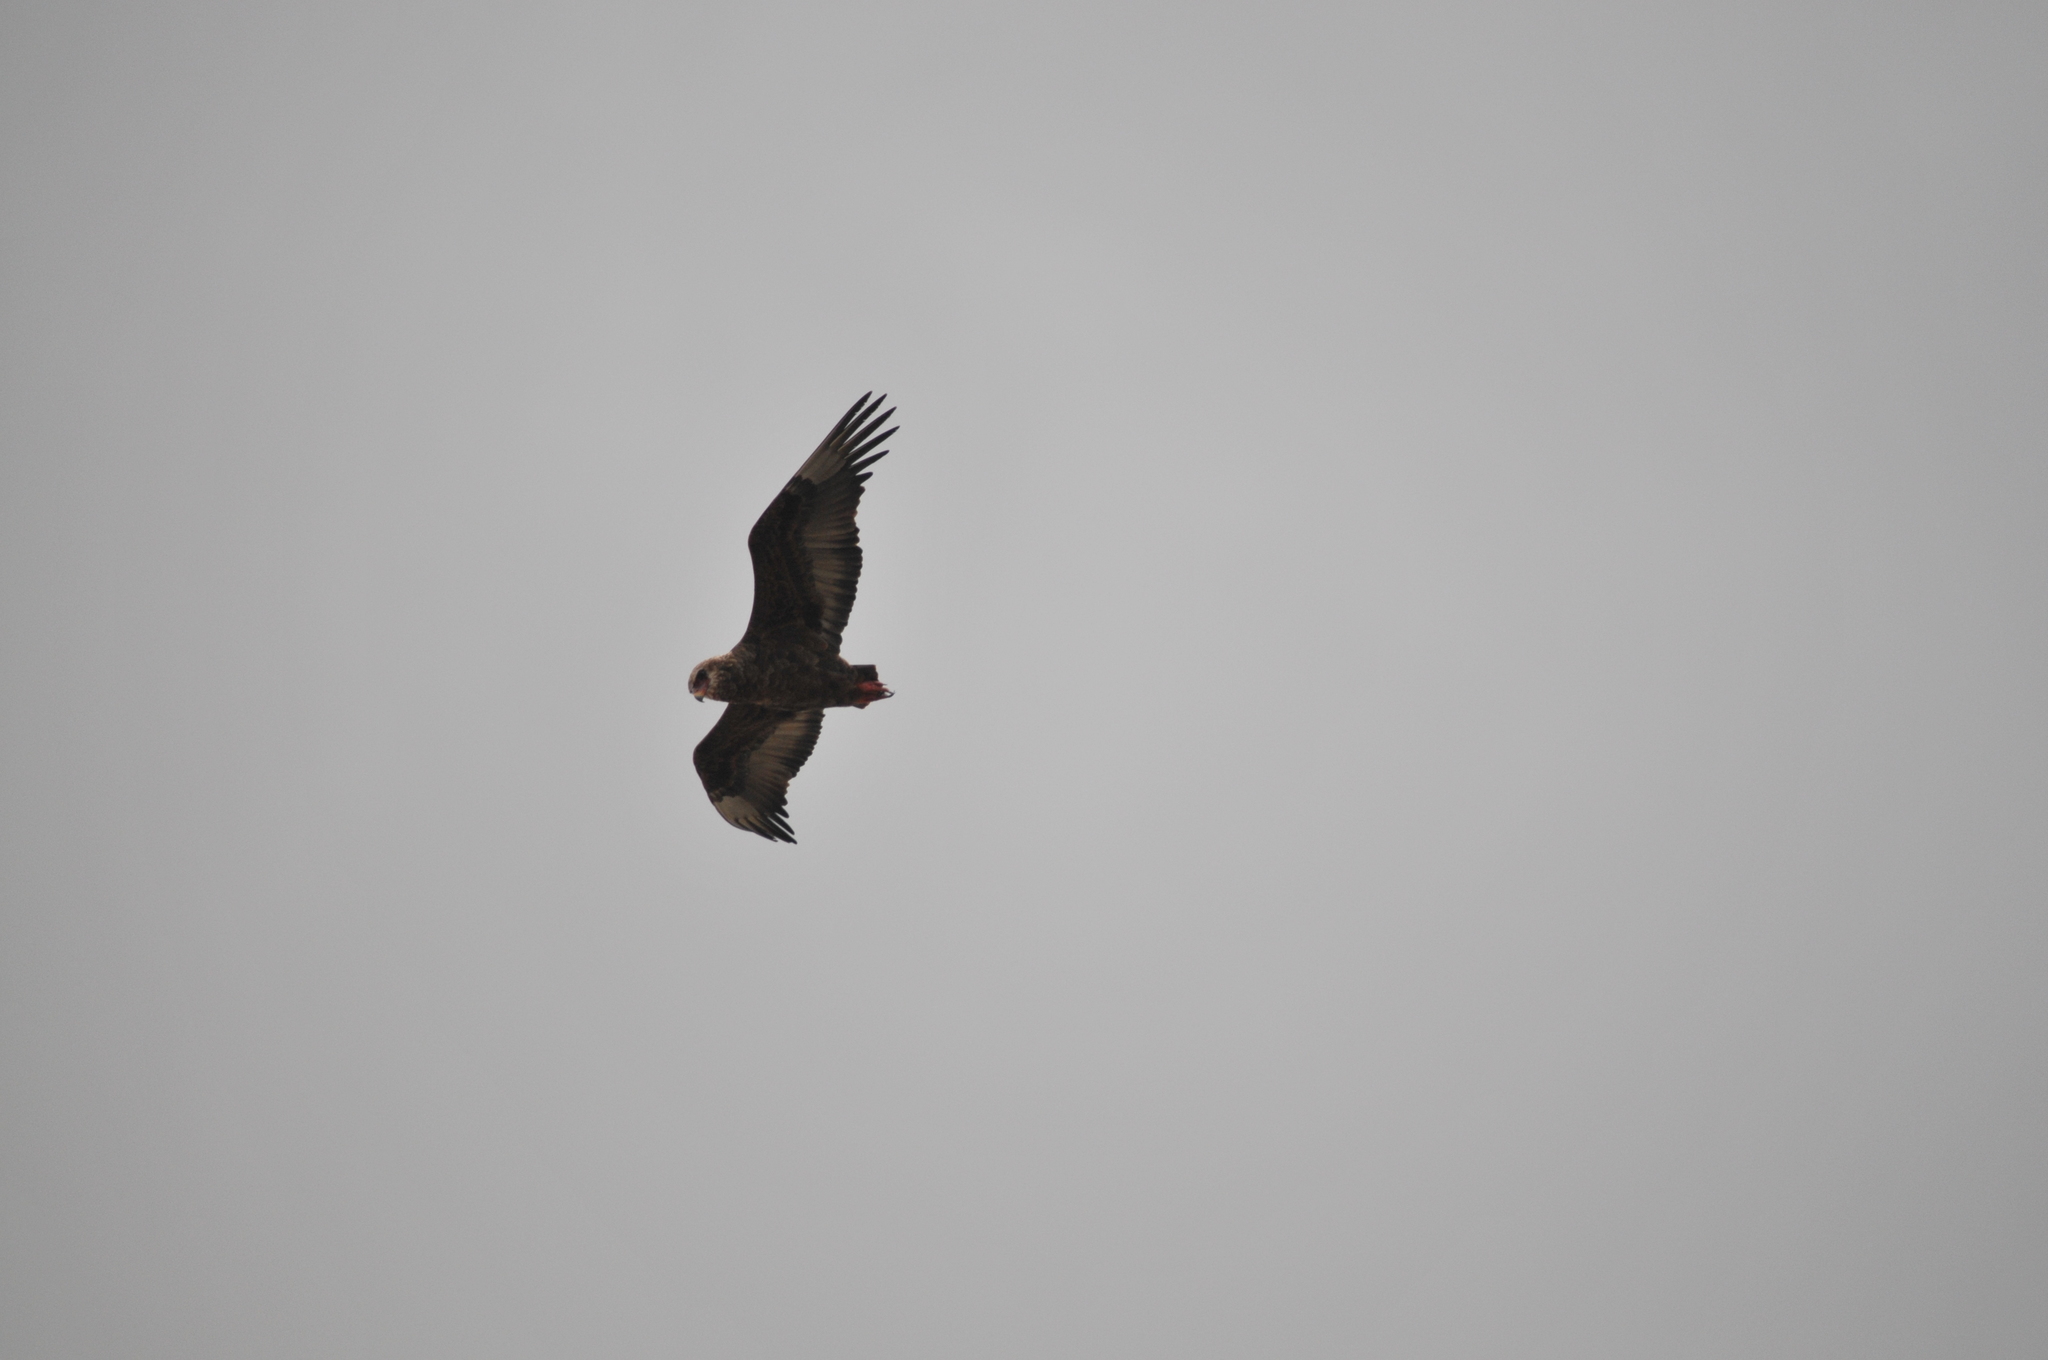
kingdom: Animalia
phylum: Chordata
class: Aves
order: Accipitriformes
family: Accipitridae
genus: Terathopius
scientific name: Terathopius ecaudatus
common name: Bateleur
